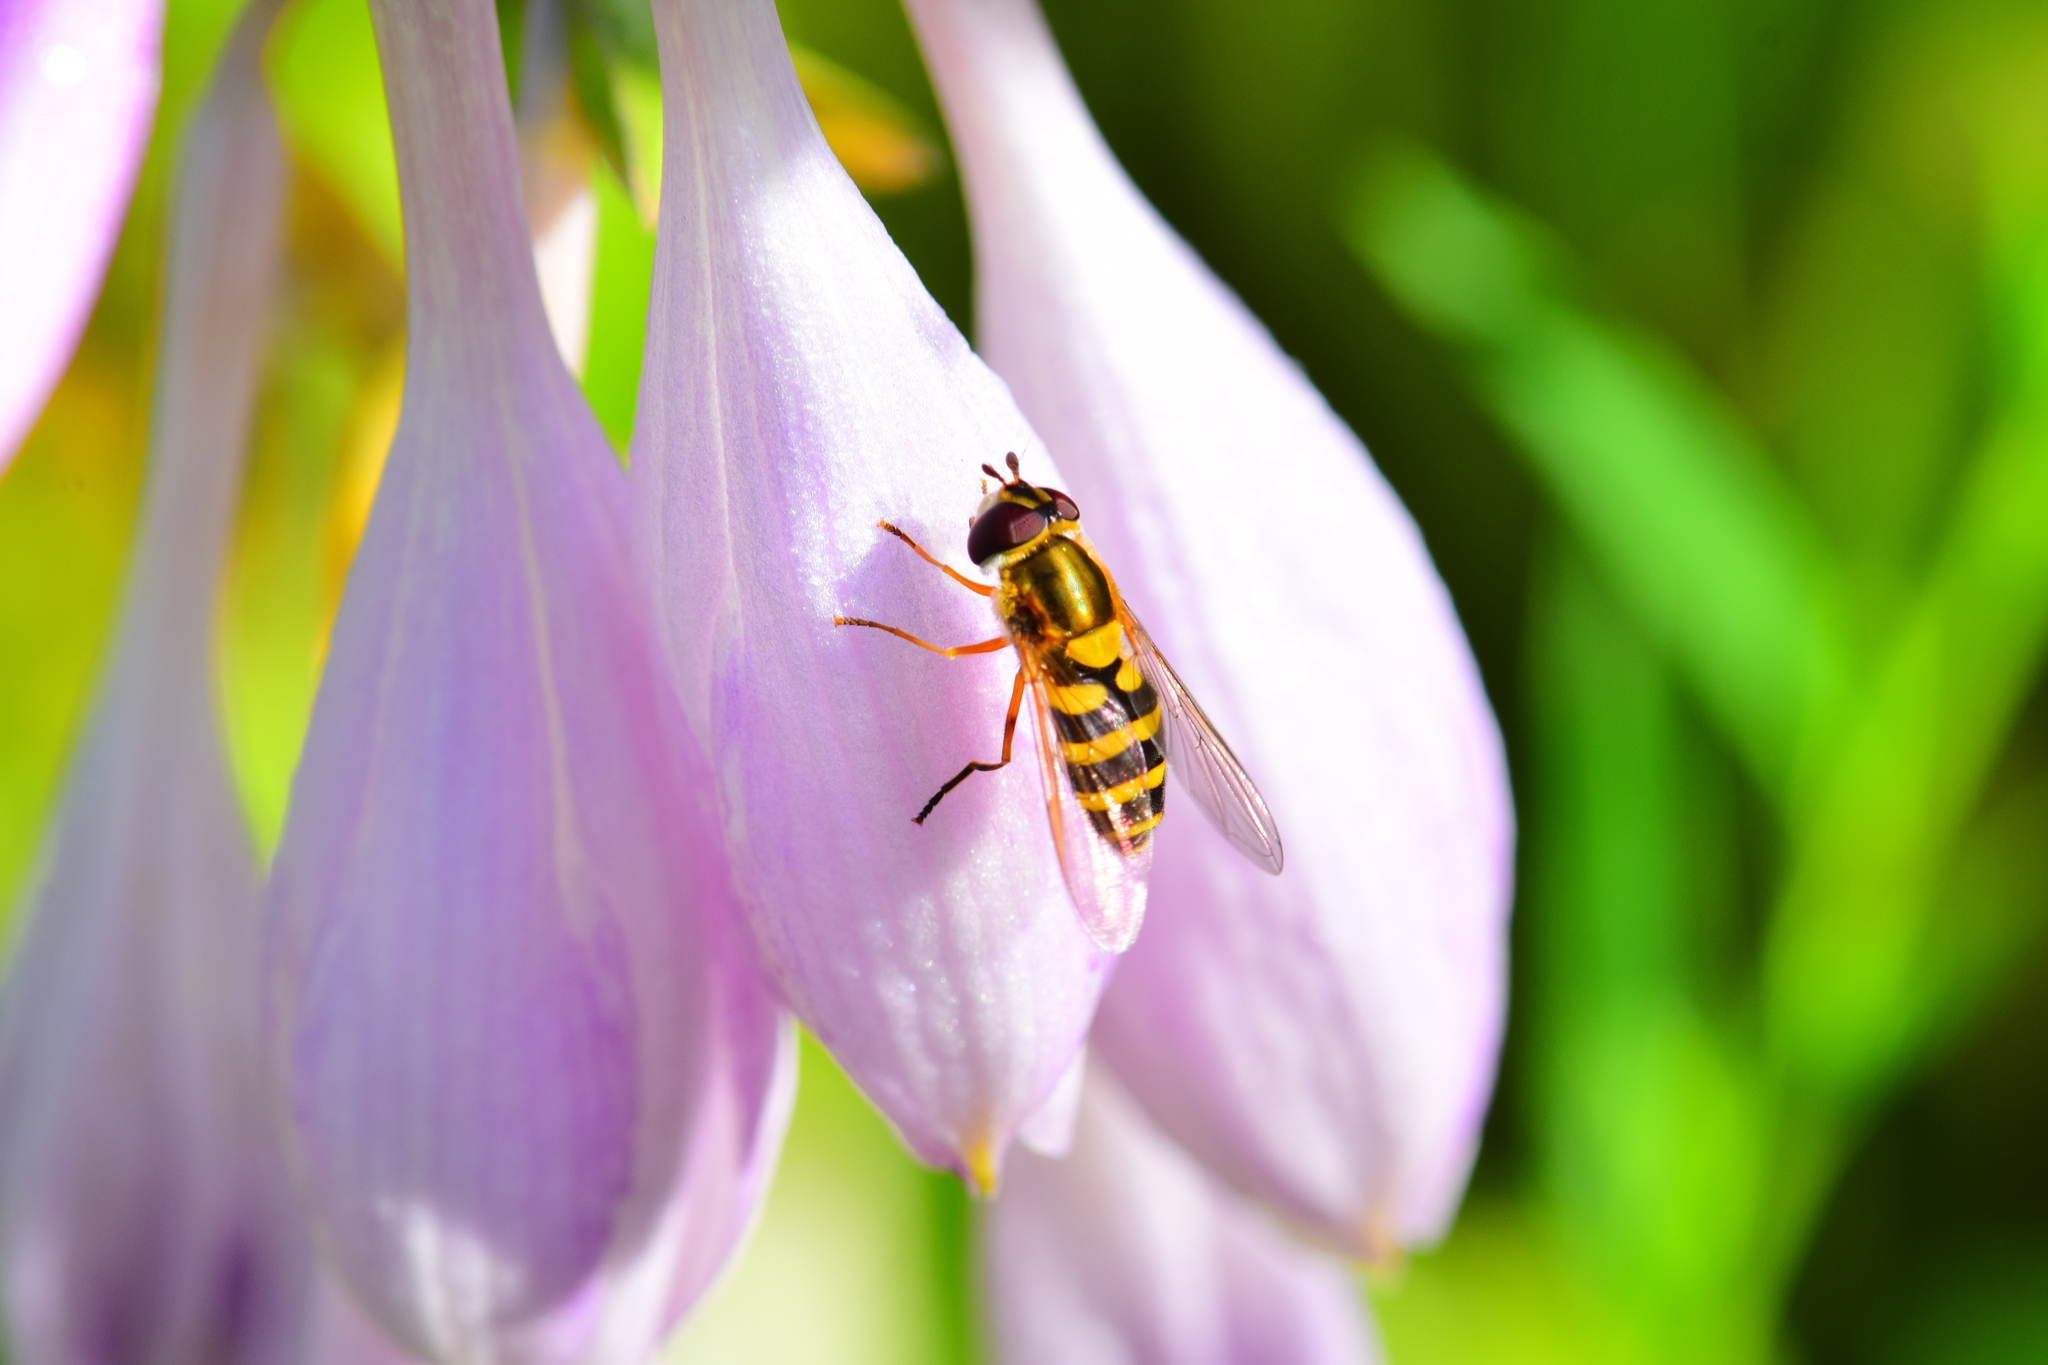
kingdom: Animalia
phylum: Arthropoda
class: Insecta
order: Diptera
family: Syrphidae
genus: Syrphus
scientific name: Syrphus rectus
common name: Yellow-legged flower fly
